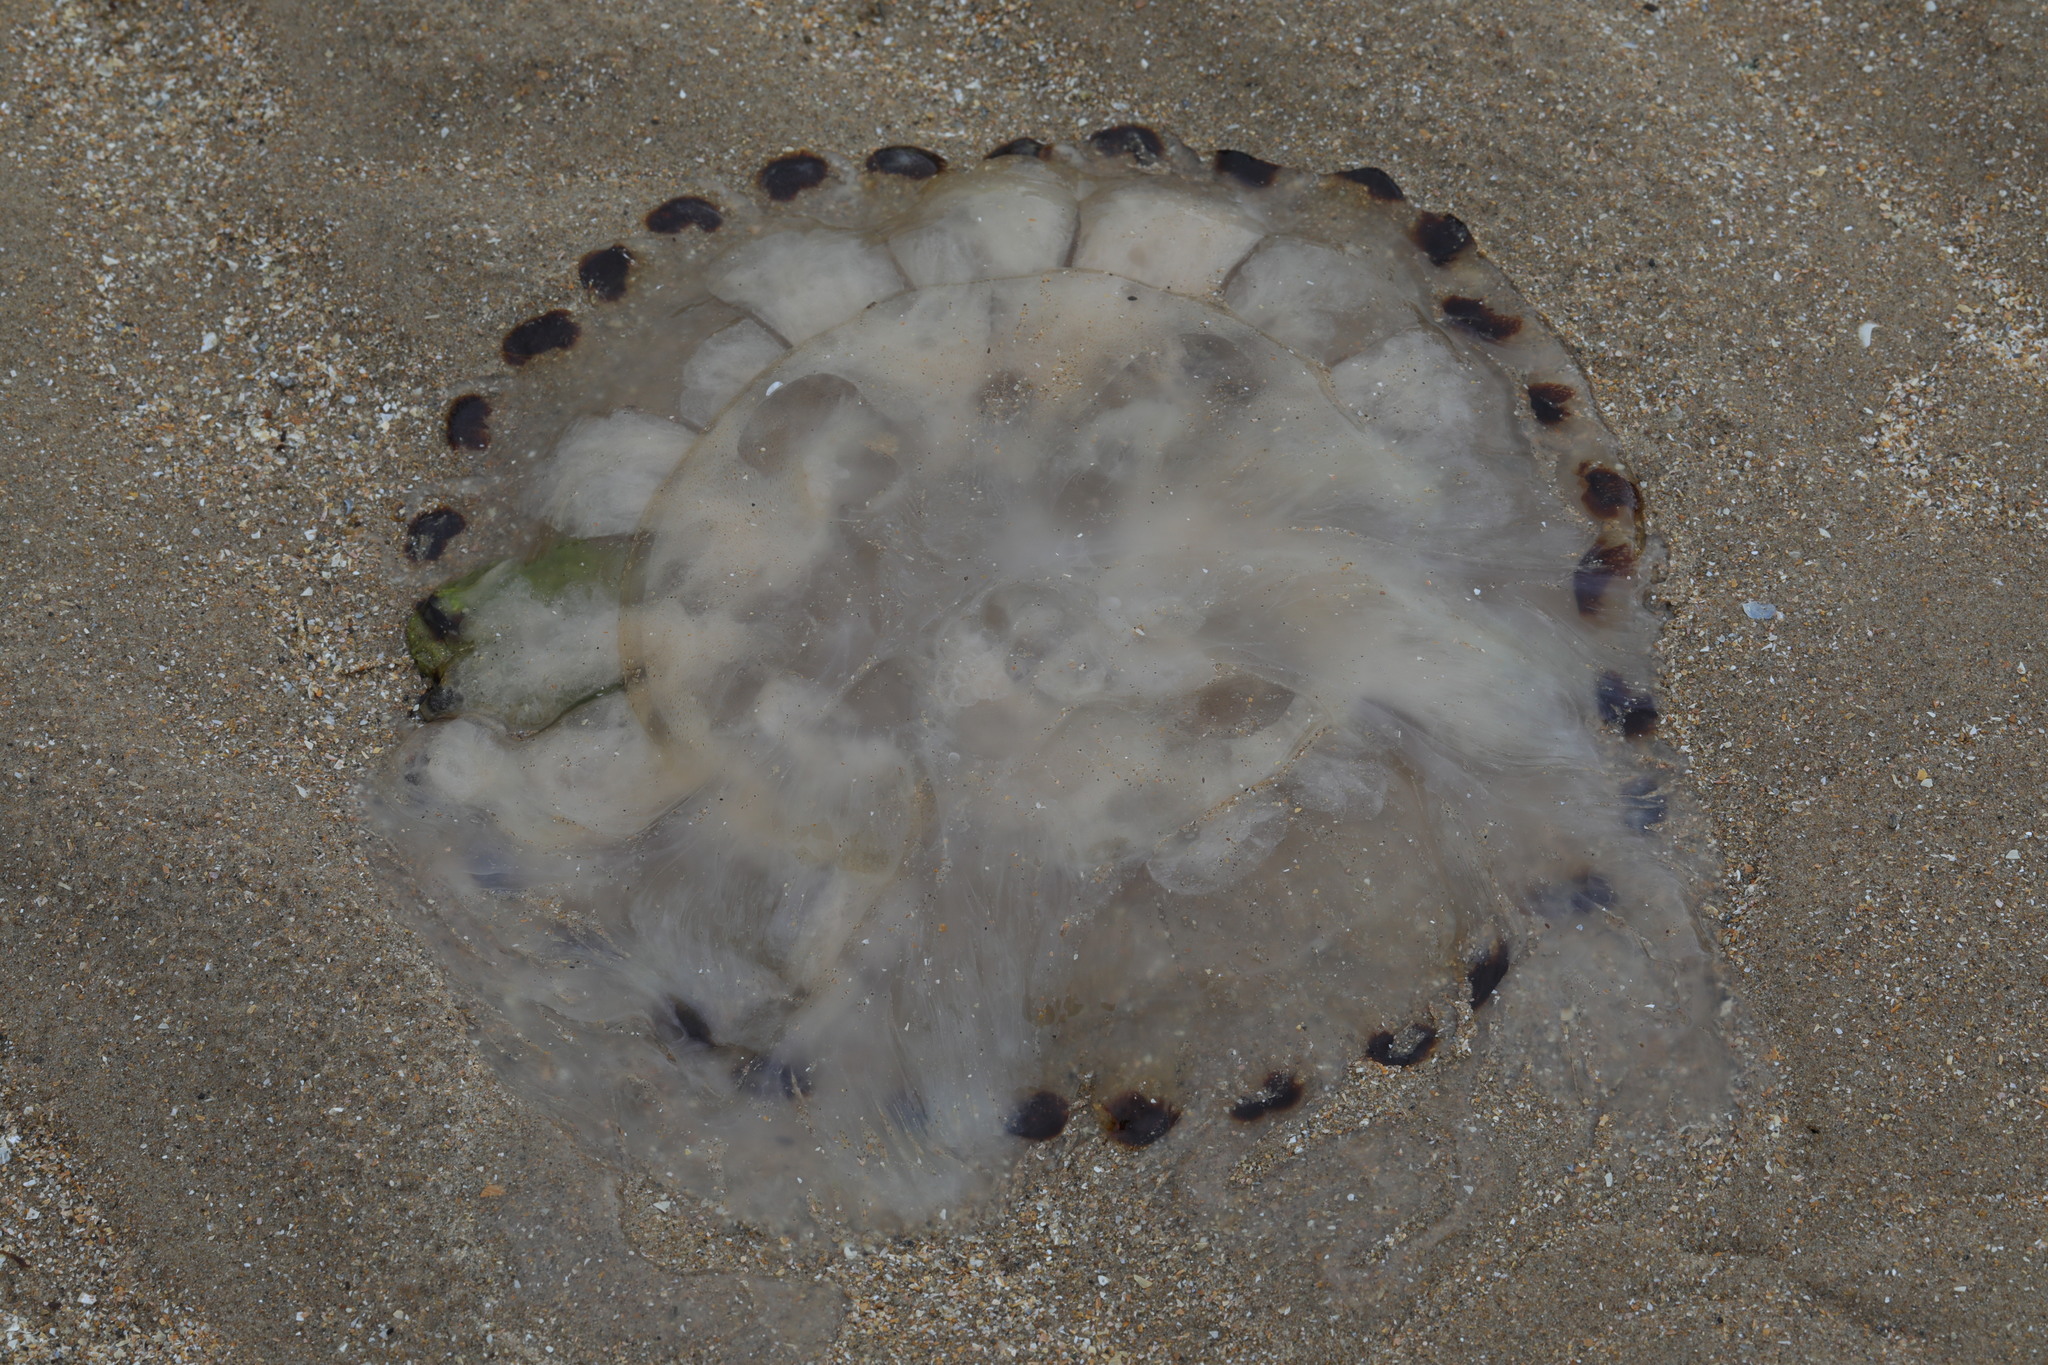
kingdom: Animalia
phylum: Cnidaria
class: Scyphozoa
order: Semaeostomeae
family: Pelagiidae
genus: Chrysaora
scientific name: Chrysaora hysoscella
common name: Compass jellyfish
